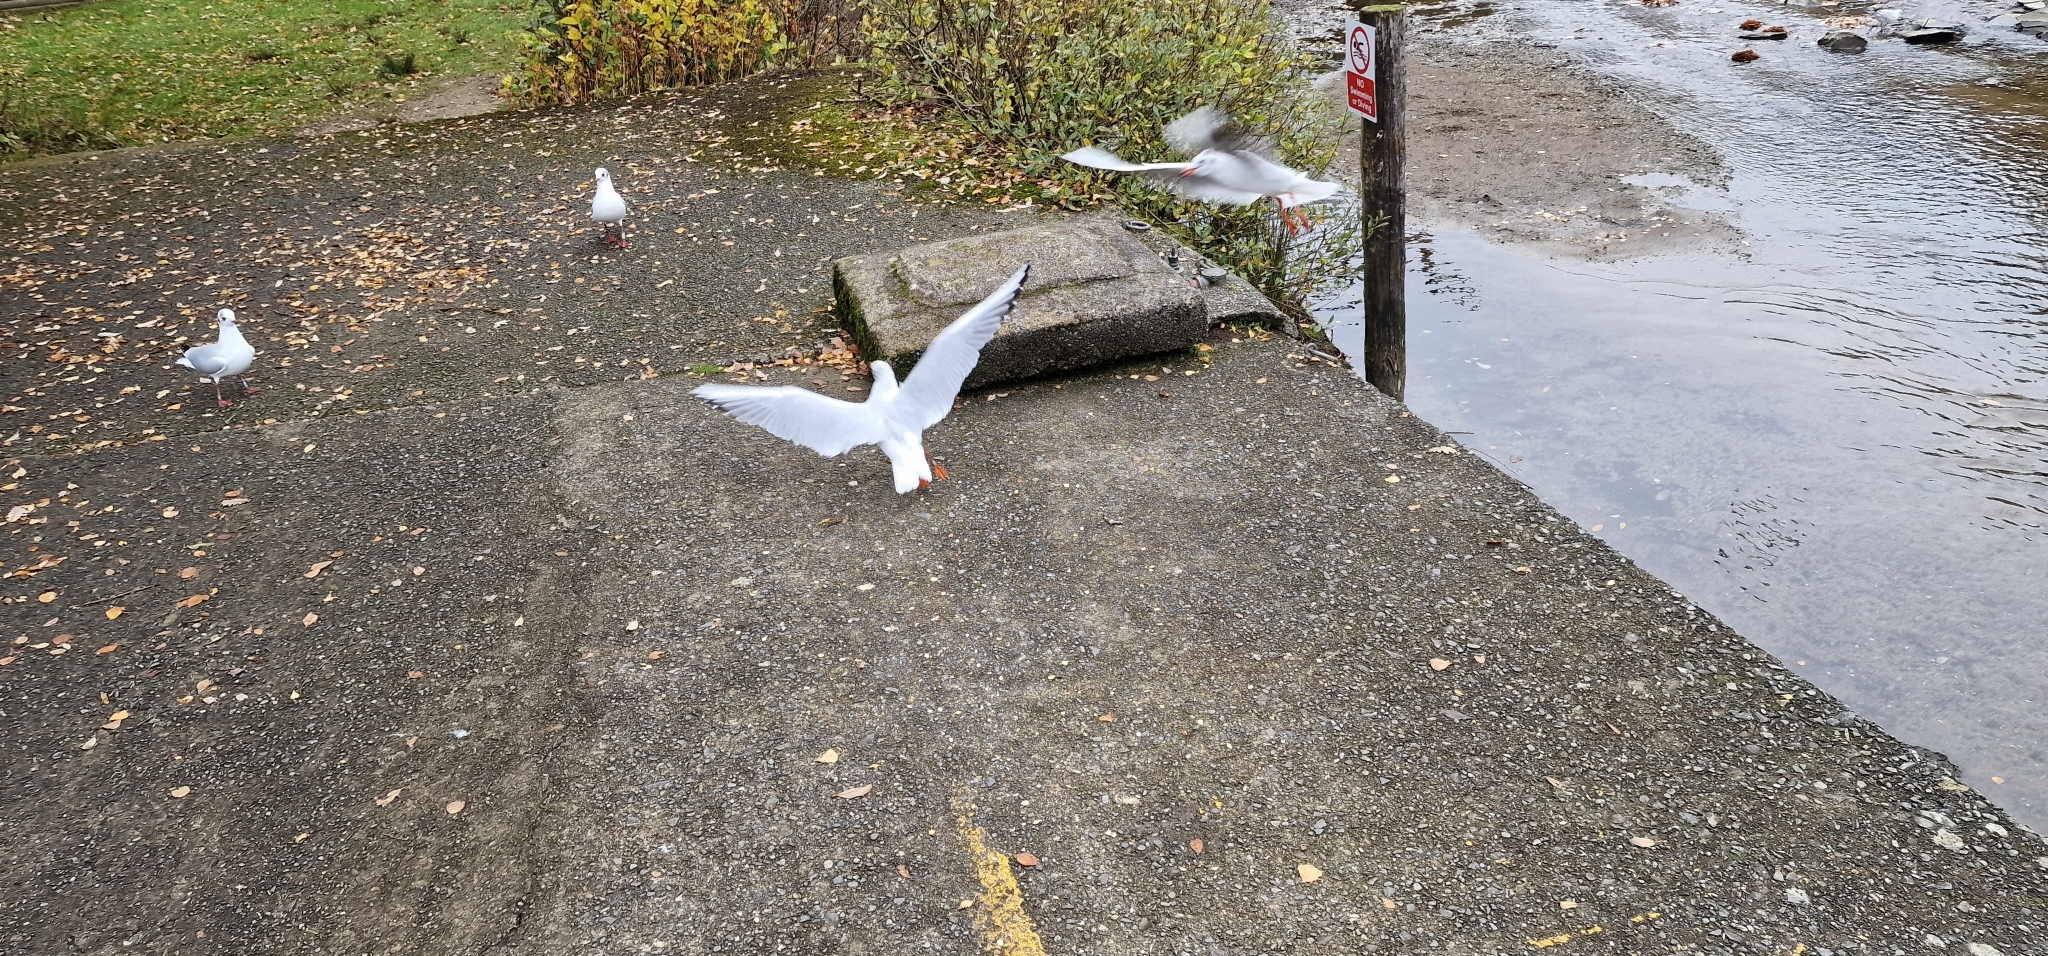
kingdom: Animalia
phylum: Chordata
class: Aves
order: Charadriiformes
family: Laridae
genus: Chroicocephalus
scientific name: Chroicocephalus ridibundus
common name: Black-headed gull
